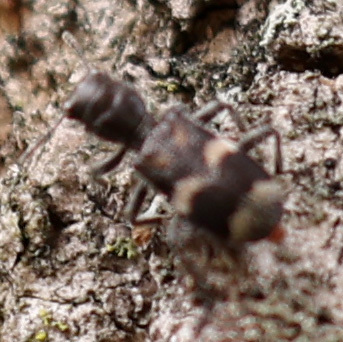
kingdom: Animalia
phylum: Arthropoda
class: Insecta
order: Coleoptera
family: Cleridae
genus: Enoclerus
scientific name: Enoclerus nigripes
